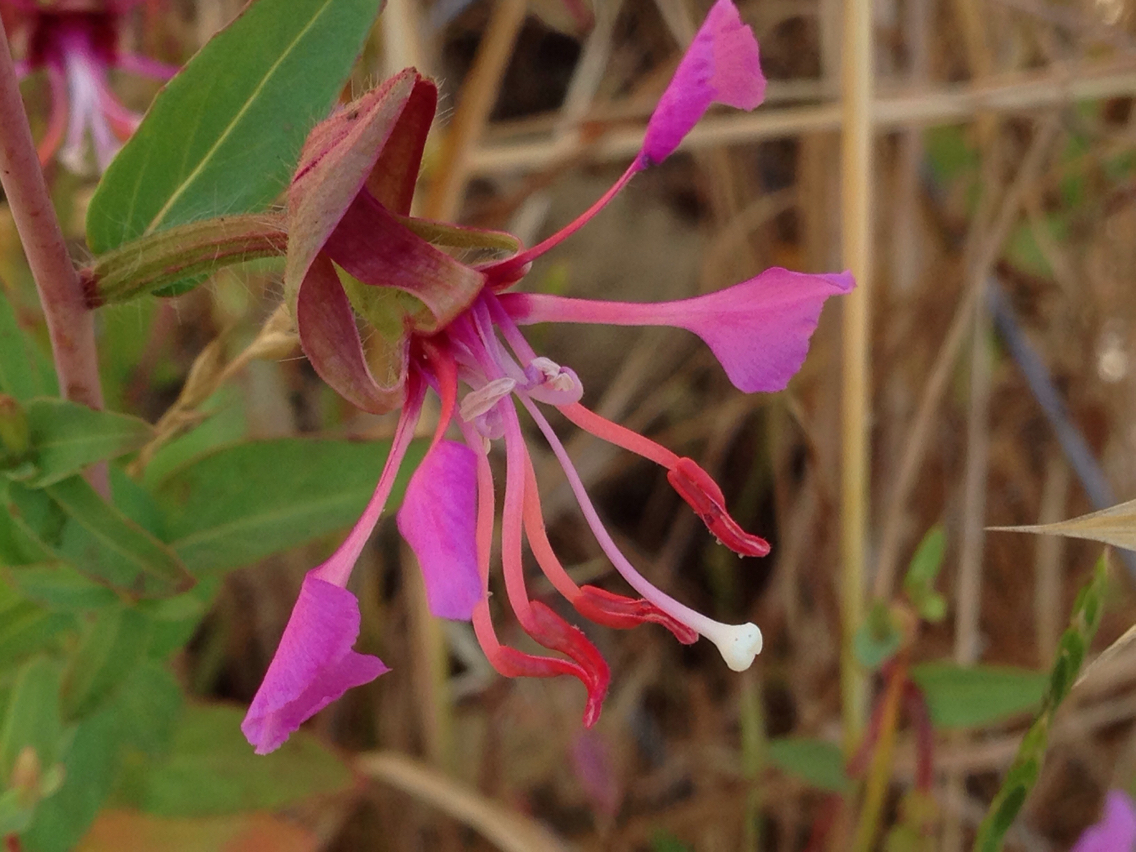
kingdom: Plantae
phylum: Tracheophyta
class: Magnoliopsida
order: Myrtales
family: Onagraceae
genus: Clarkia
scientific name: Clarkia unguiculata
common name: Clarkia
